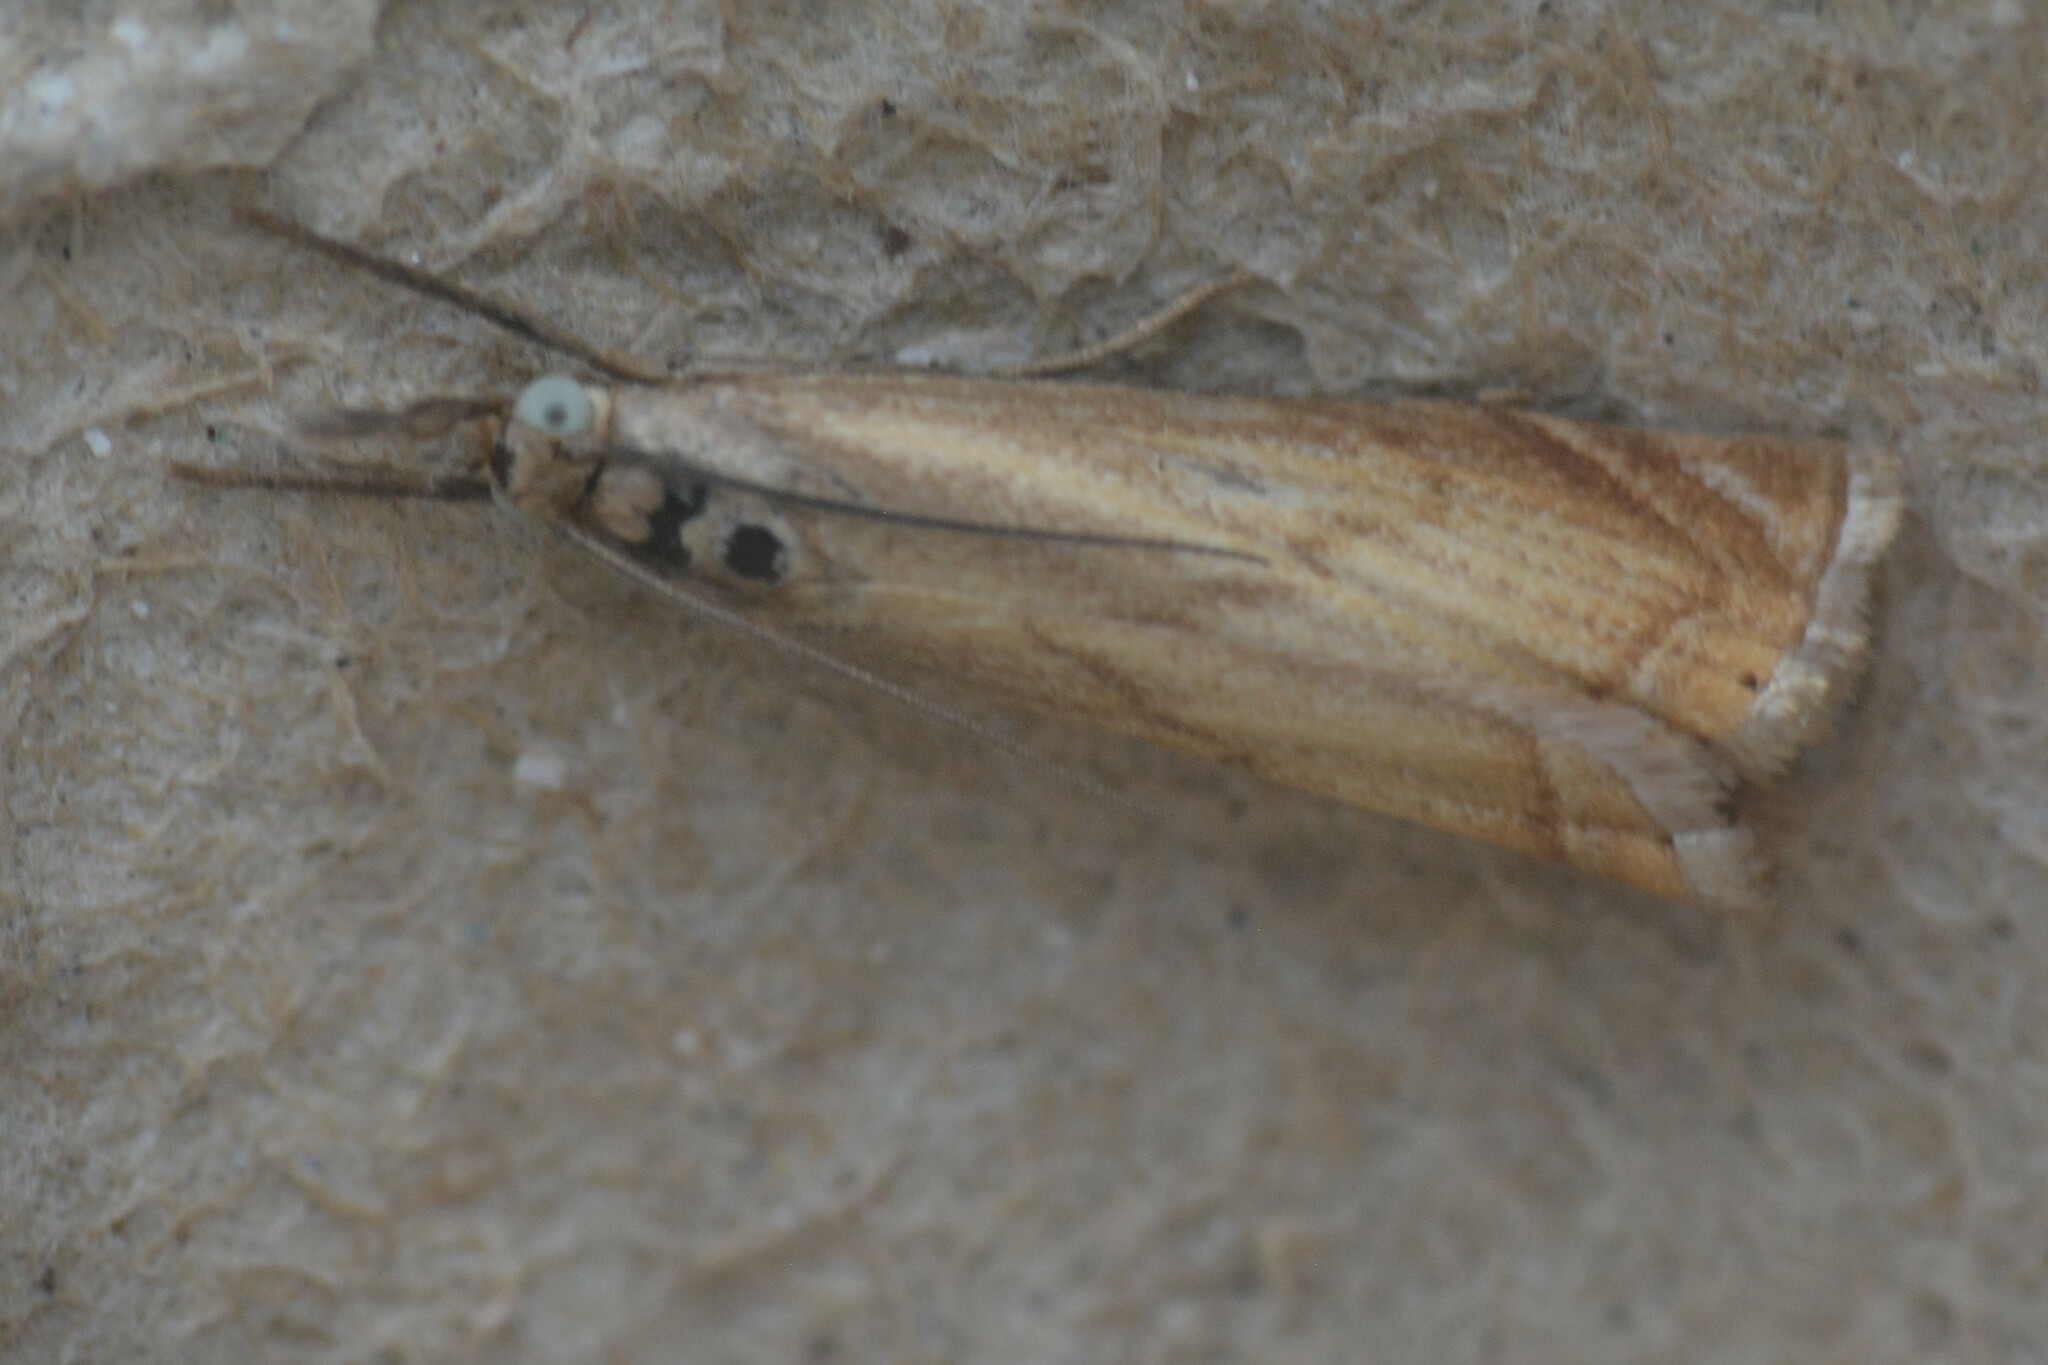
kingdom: Animalia
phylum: Arthropoda
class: Insecta
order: Lepidoptera
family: Crambidae
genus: Chrysoteuchia
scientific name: Chrysoteuchia culmella
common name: Garden grass-veneer
